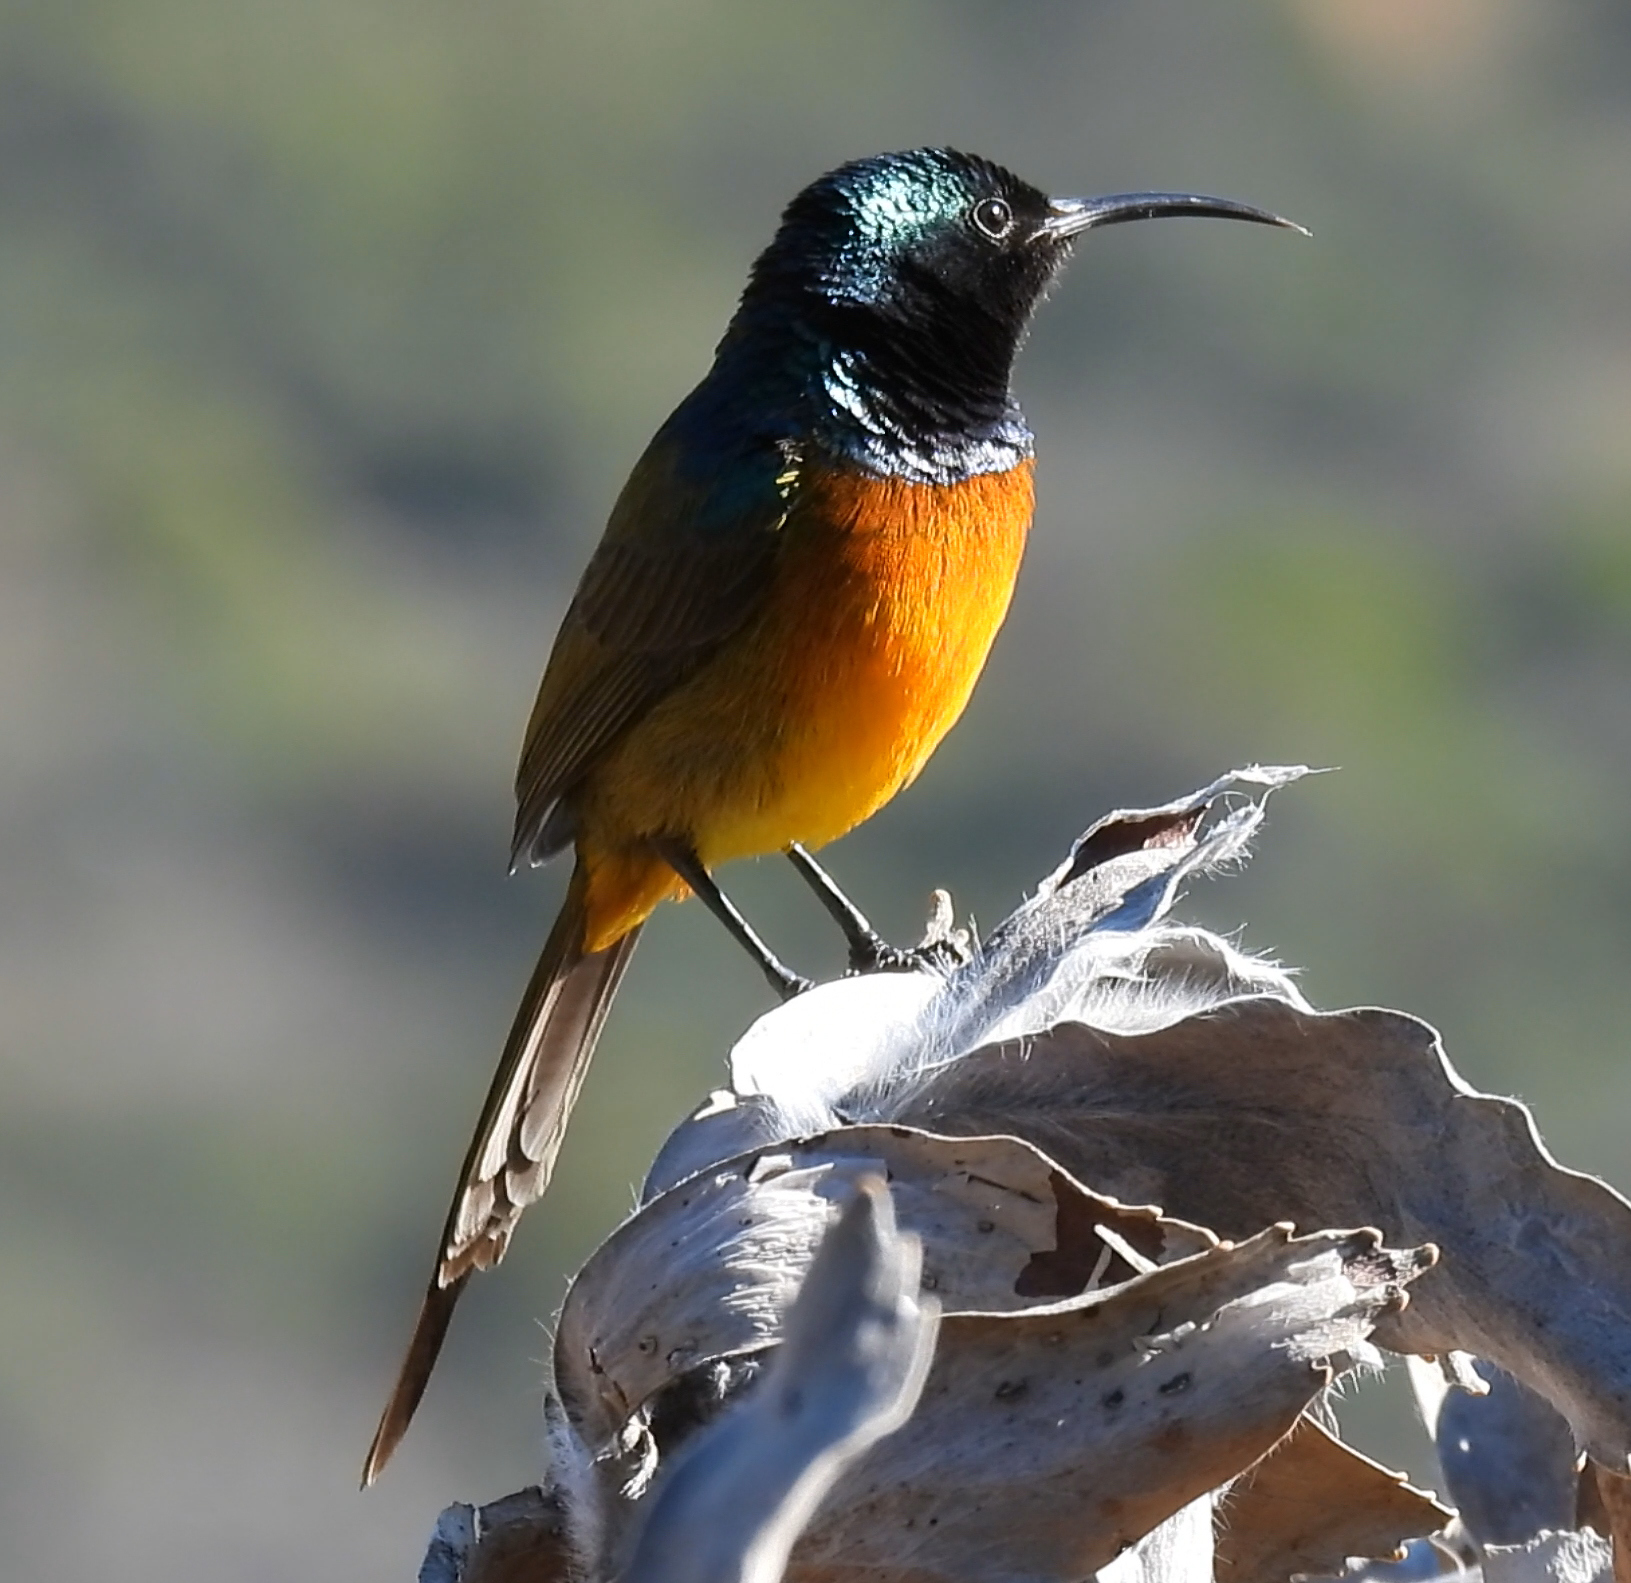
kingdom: Animalia
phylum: Chordata
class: Aves
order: Passeriformes
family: Nectariniidae
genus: Anthobaphes
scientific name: Anthobaphes violacea
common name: Orange-breasted sunbird
